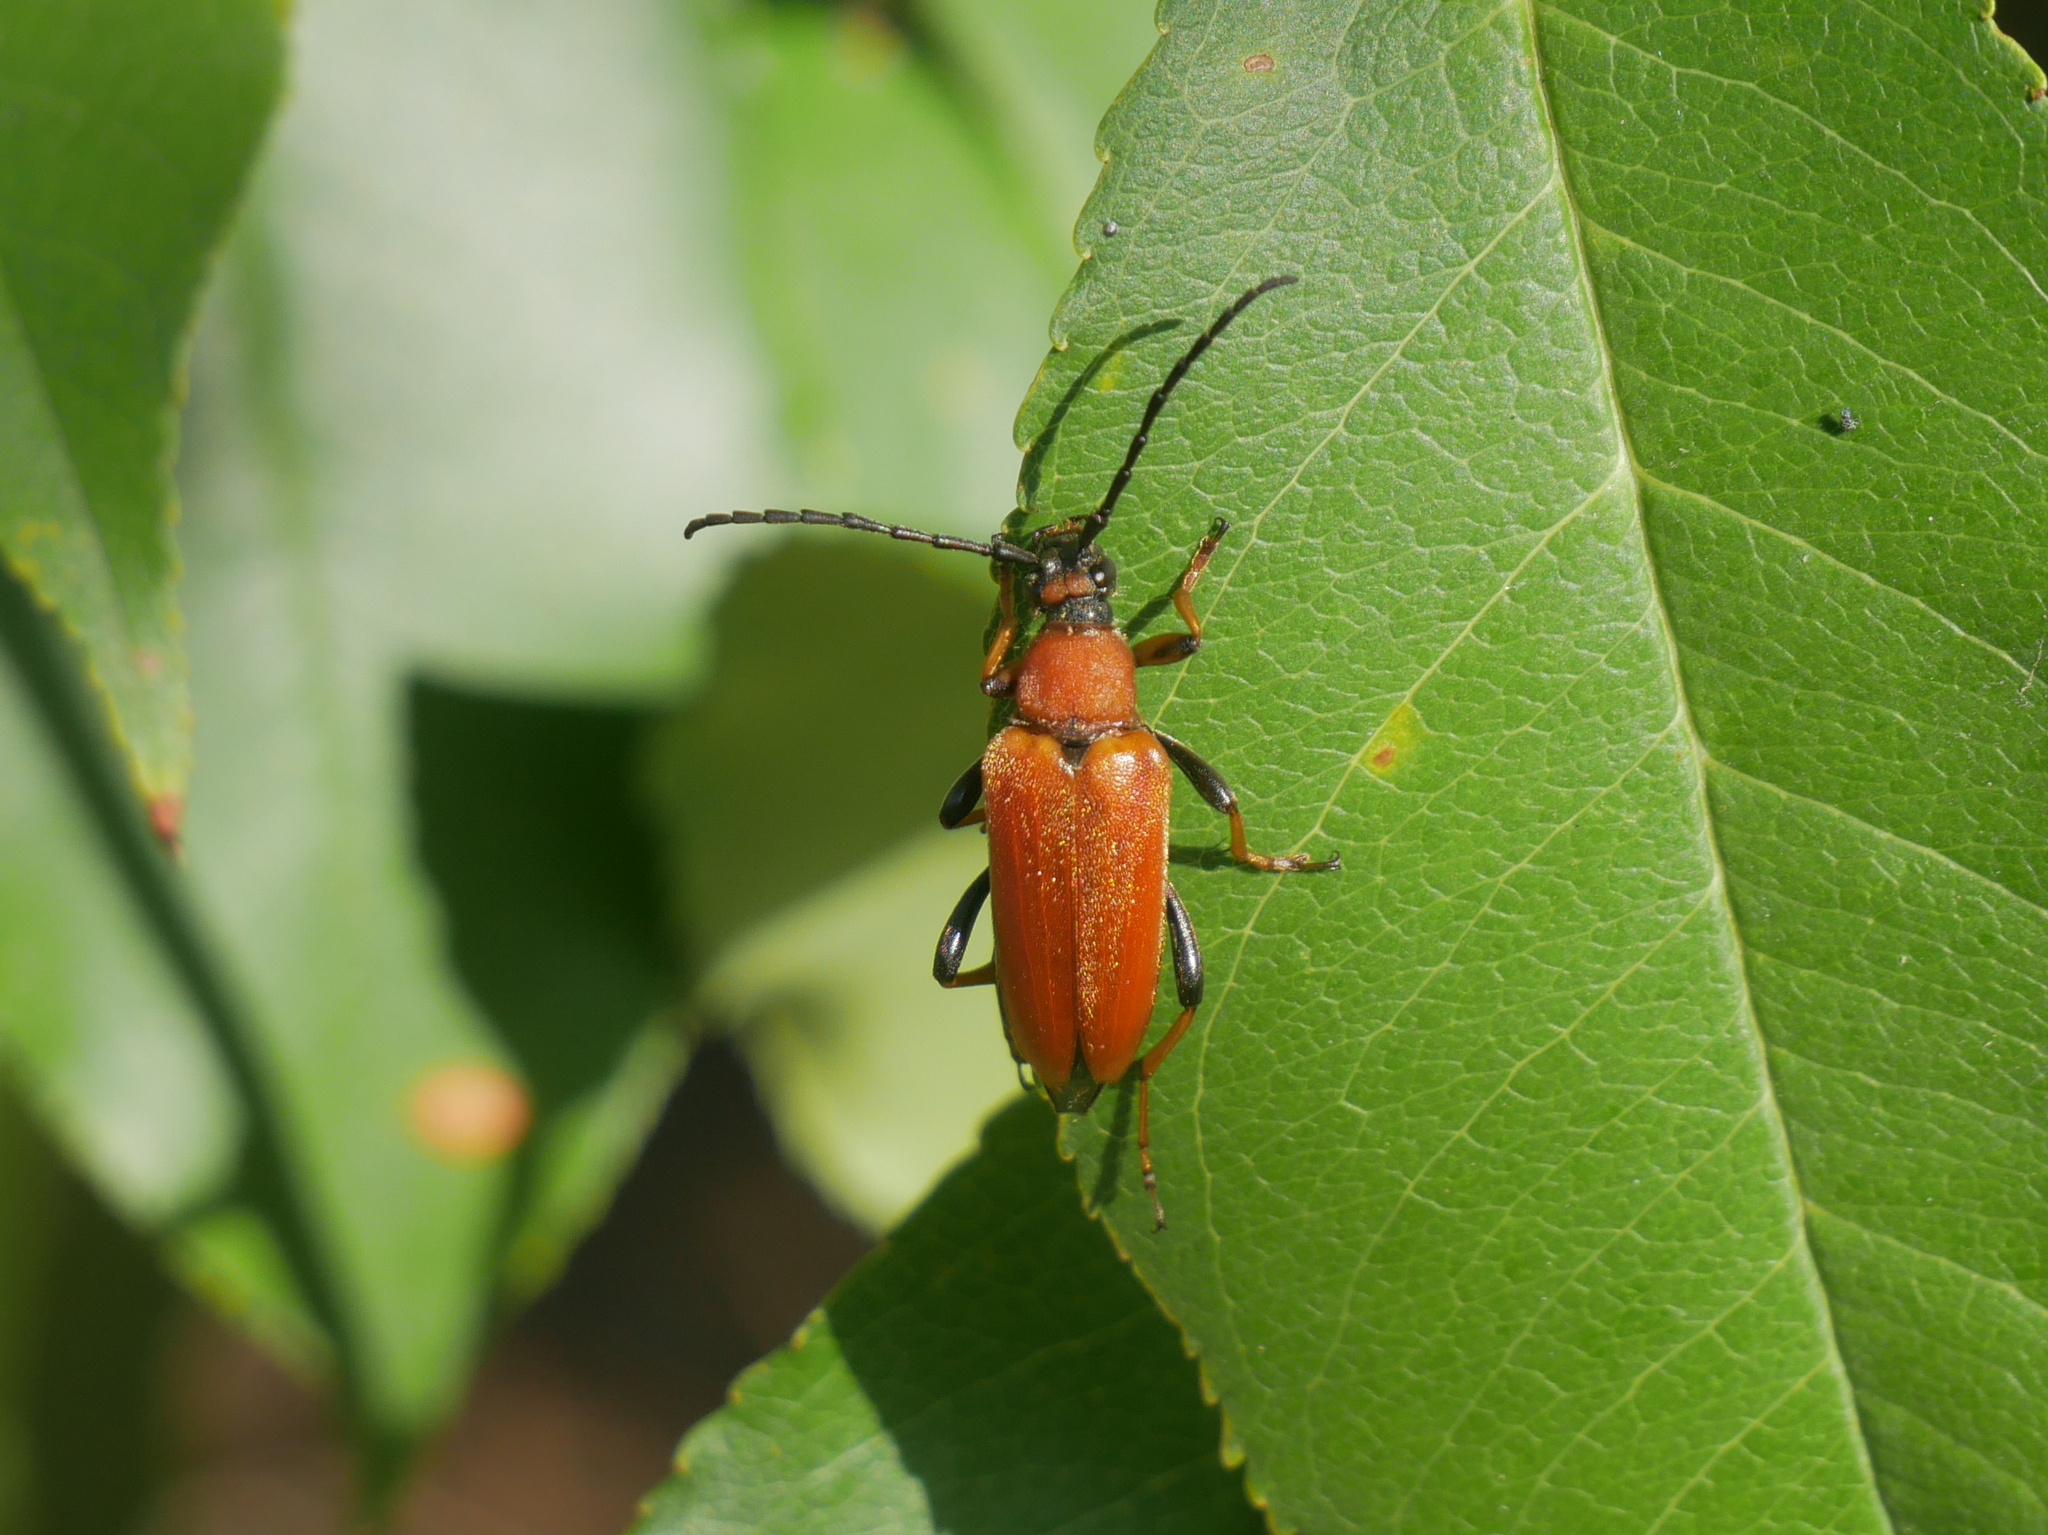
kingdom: Animalia
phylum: Arthropoda
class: Insecta
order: Coleoptera
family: Cerambycidae
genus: Stictoleptura
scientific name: Stictoleptura rubra
